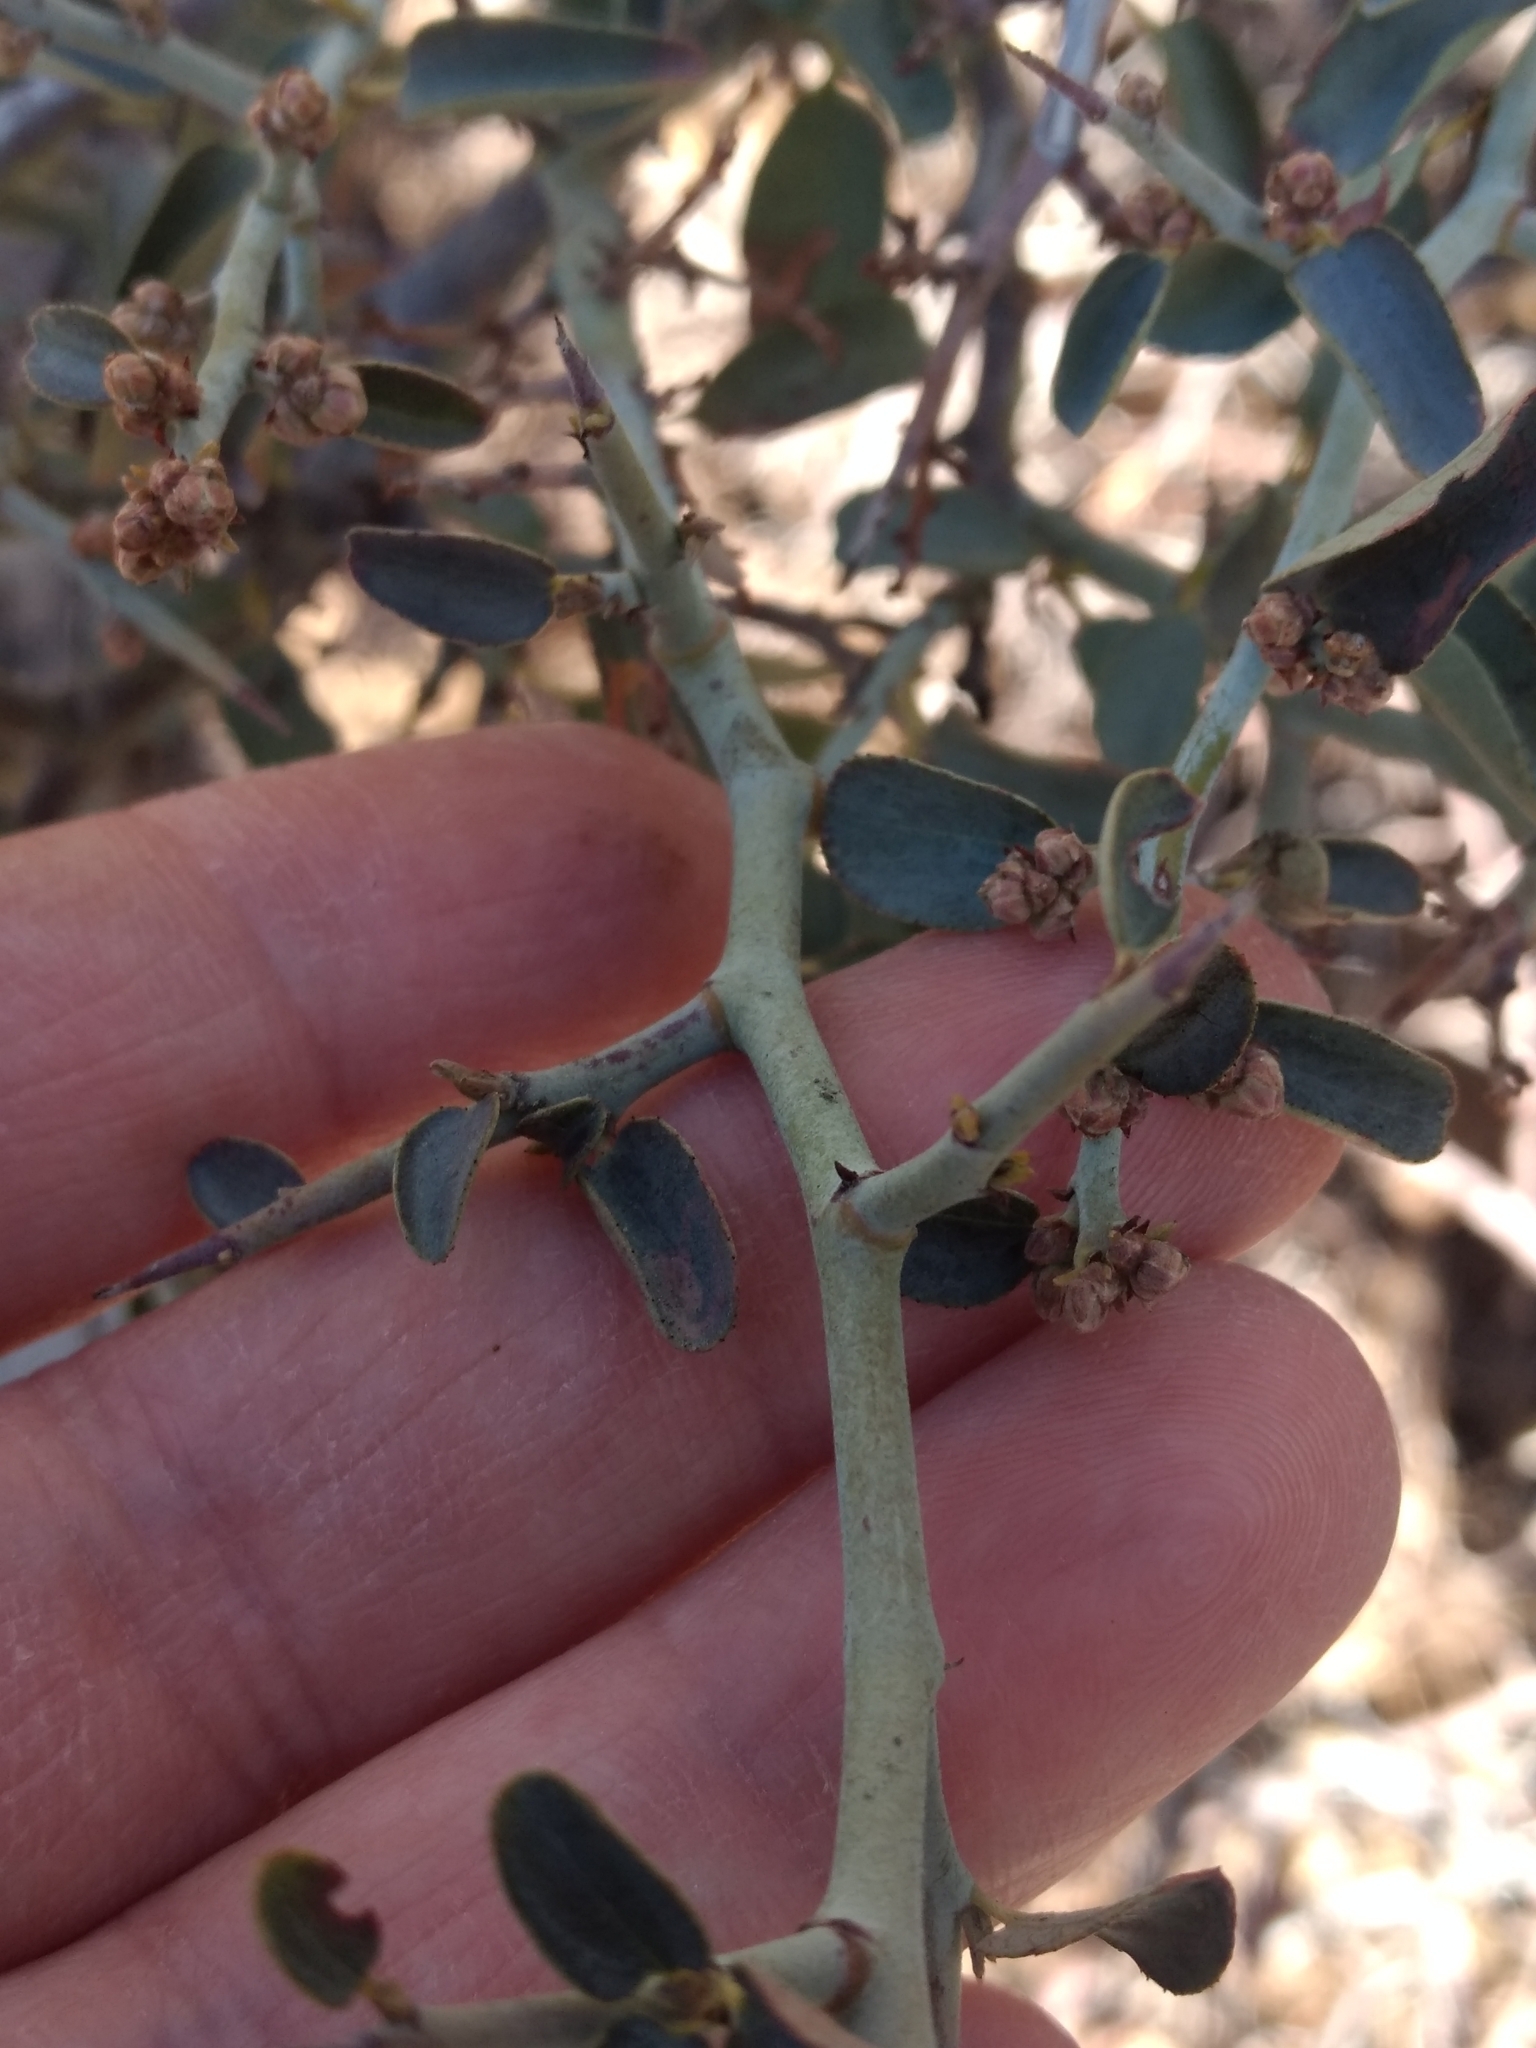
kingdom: Plantae
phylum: Tracheophyta
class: Magnoliopsida
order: Rosales
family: Rhamnaceae
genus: Ceanothus
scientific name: Ceanothus cordulatus
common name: Mountain whitethorn
